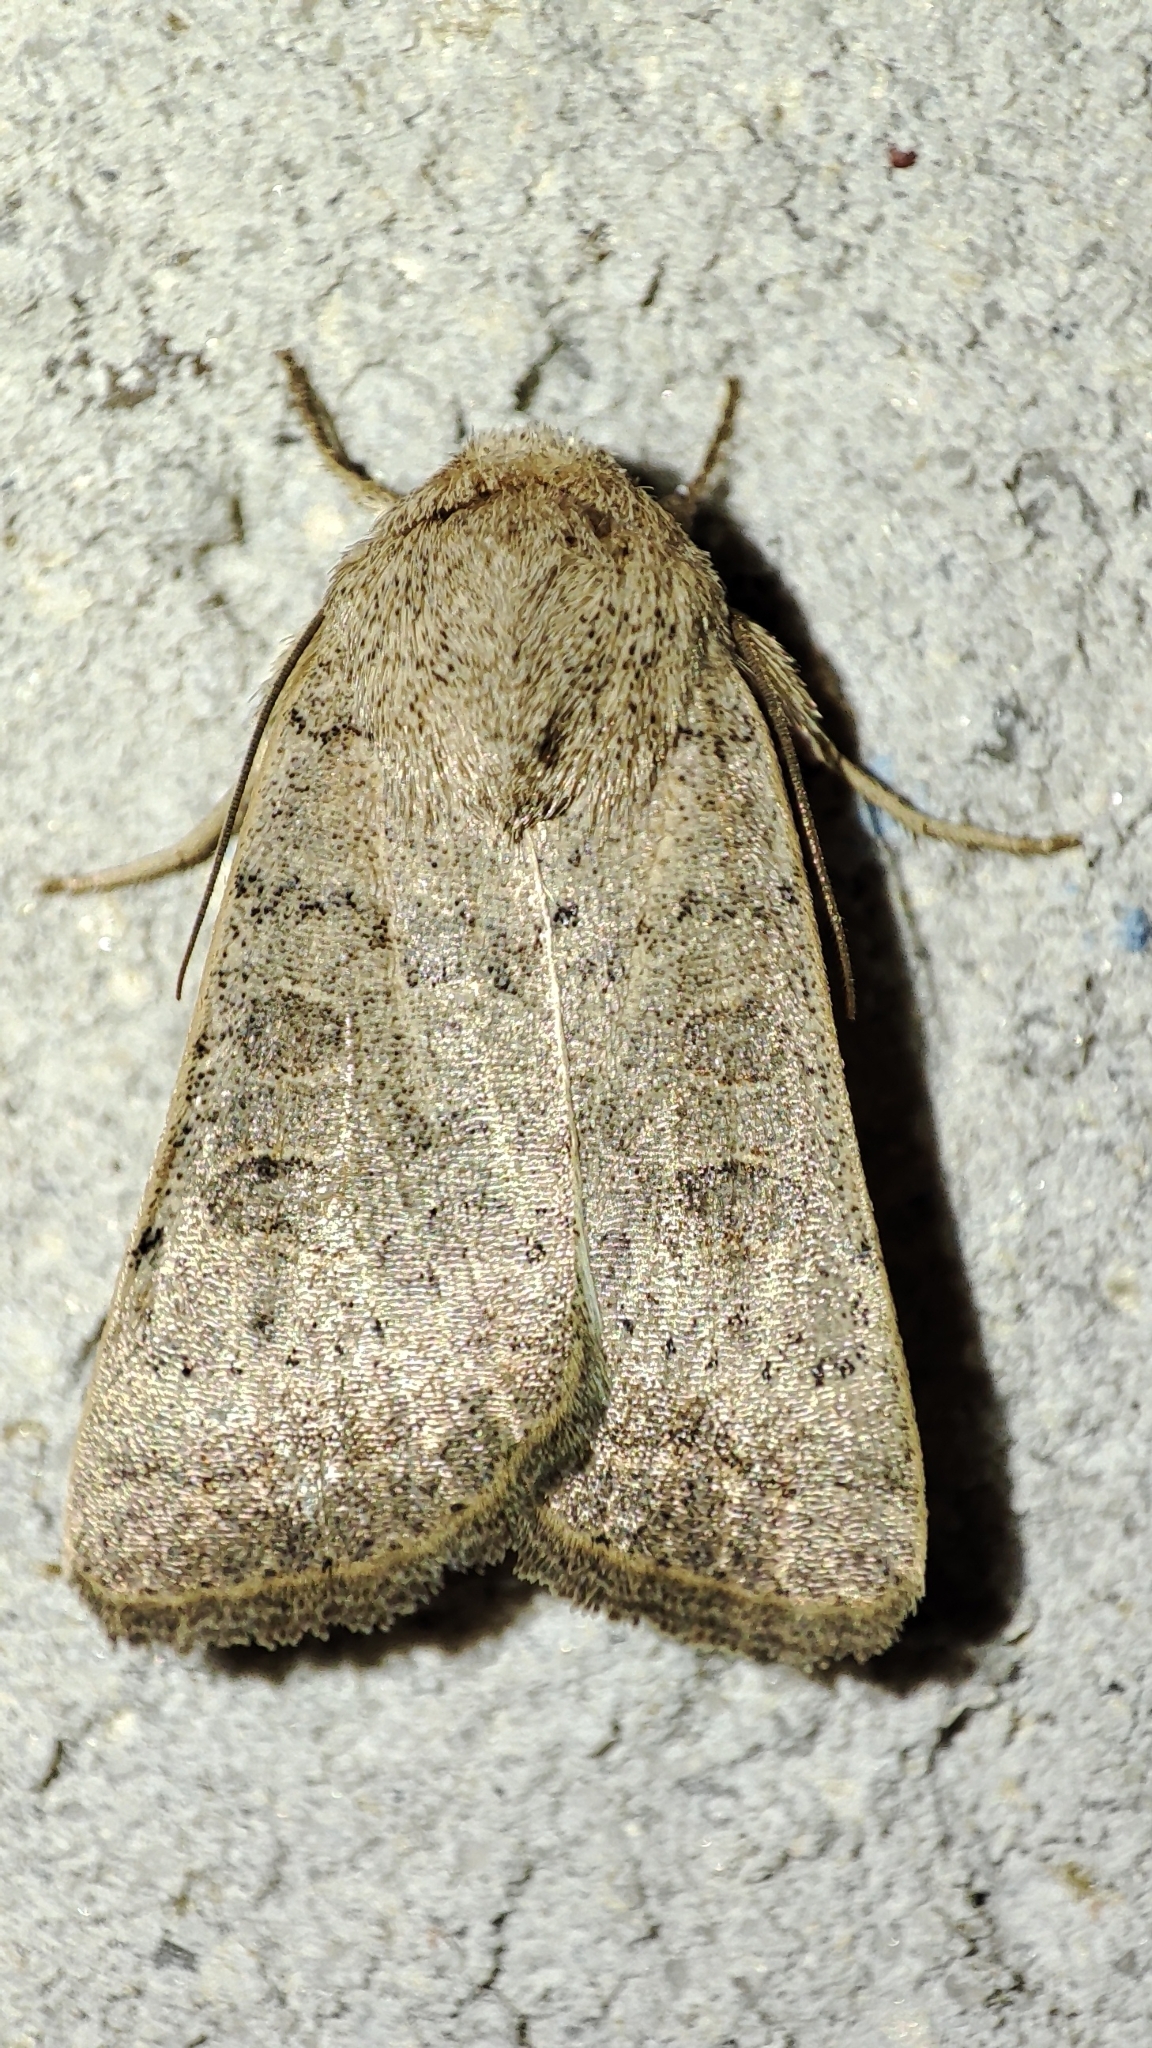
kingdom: Animalia
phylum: Arthropoda
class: Insecta
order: Lepidoptera
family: Noctuidae
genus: Hoplodrina
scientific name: Hoplodrina ambigua
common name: Vine's rustic
